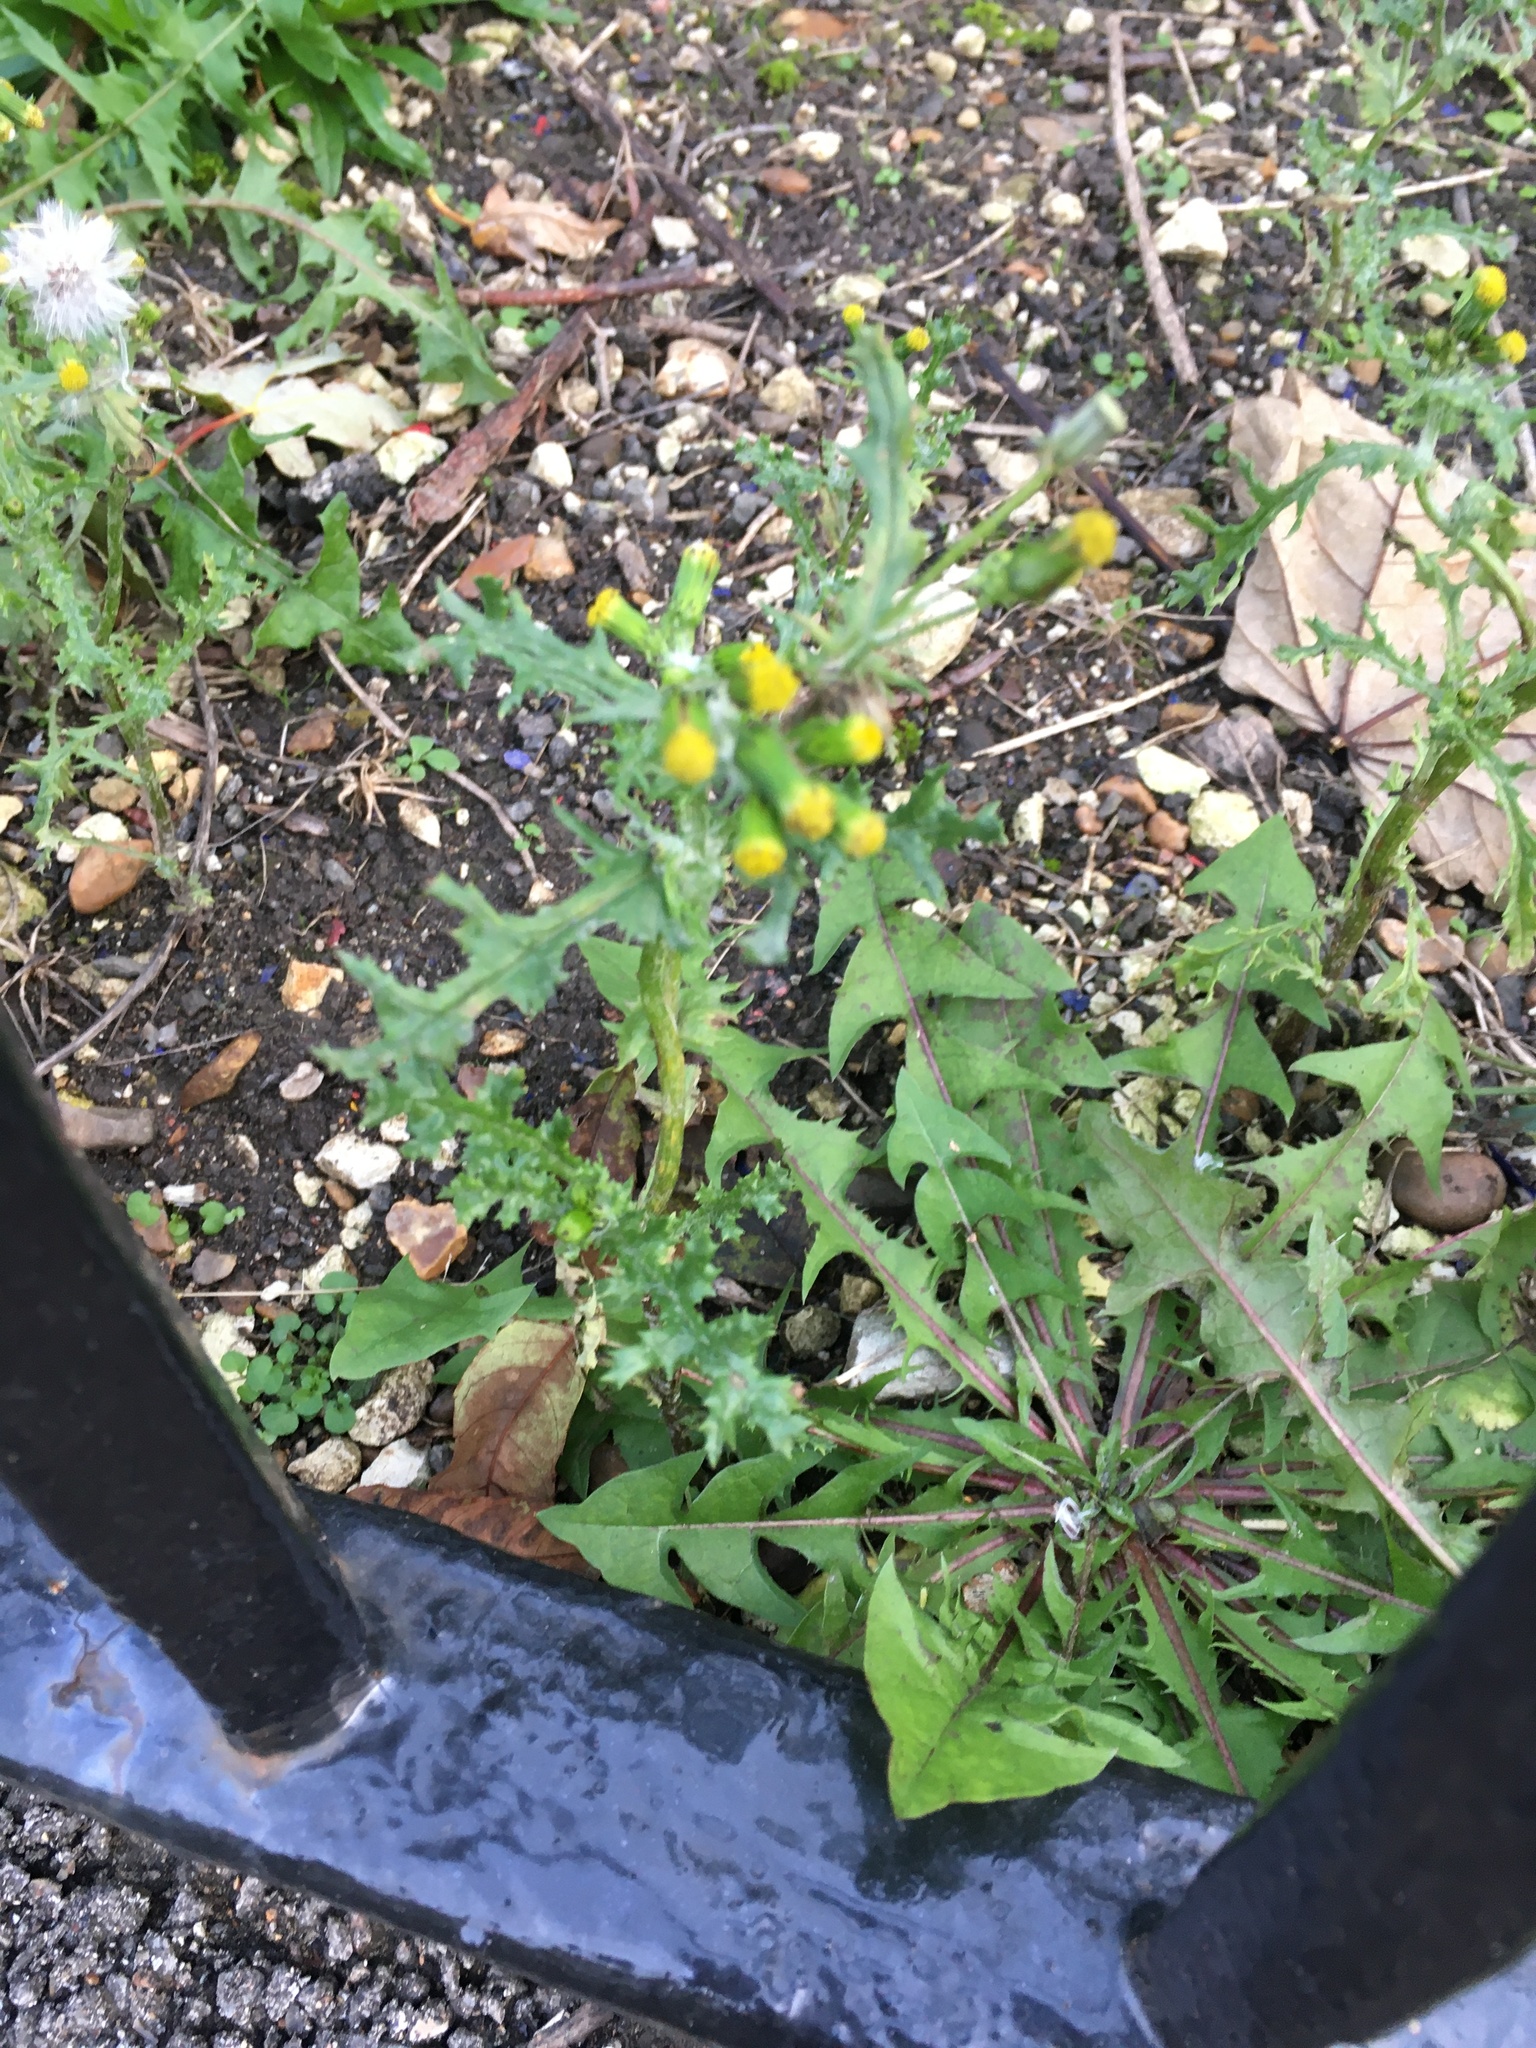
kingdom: Plantae
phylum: Tracheophyta
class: Magnoliopsida
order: Asterales
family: Asteraceae
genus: Senecio
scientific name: Senecio vulgaris
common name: Old-man-in-the-spring
